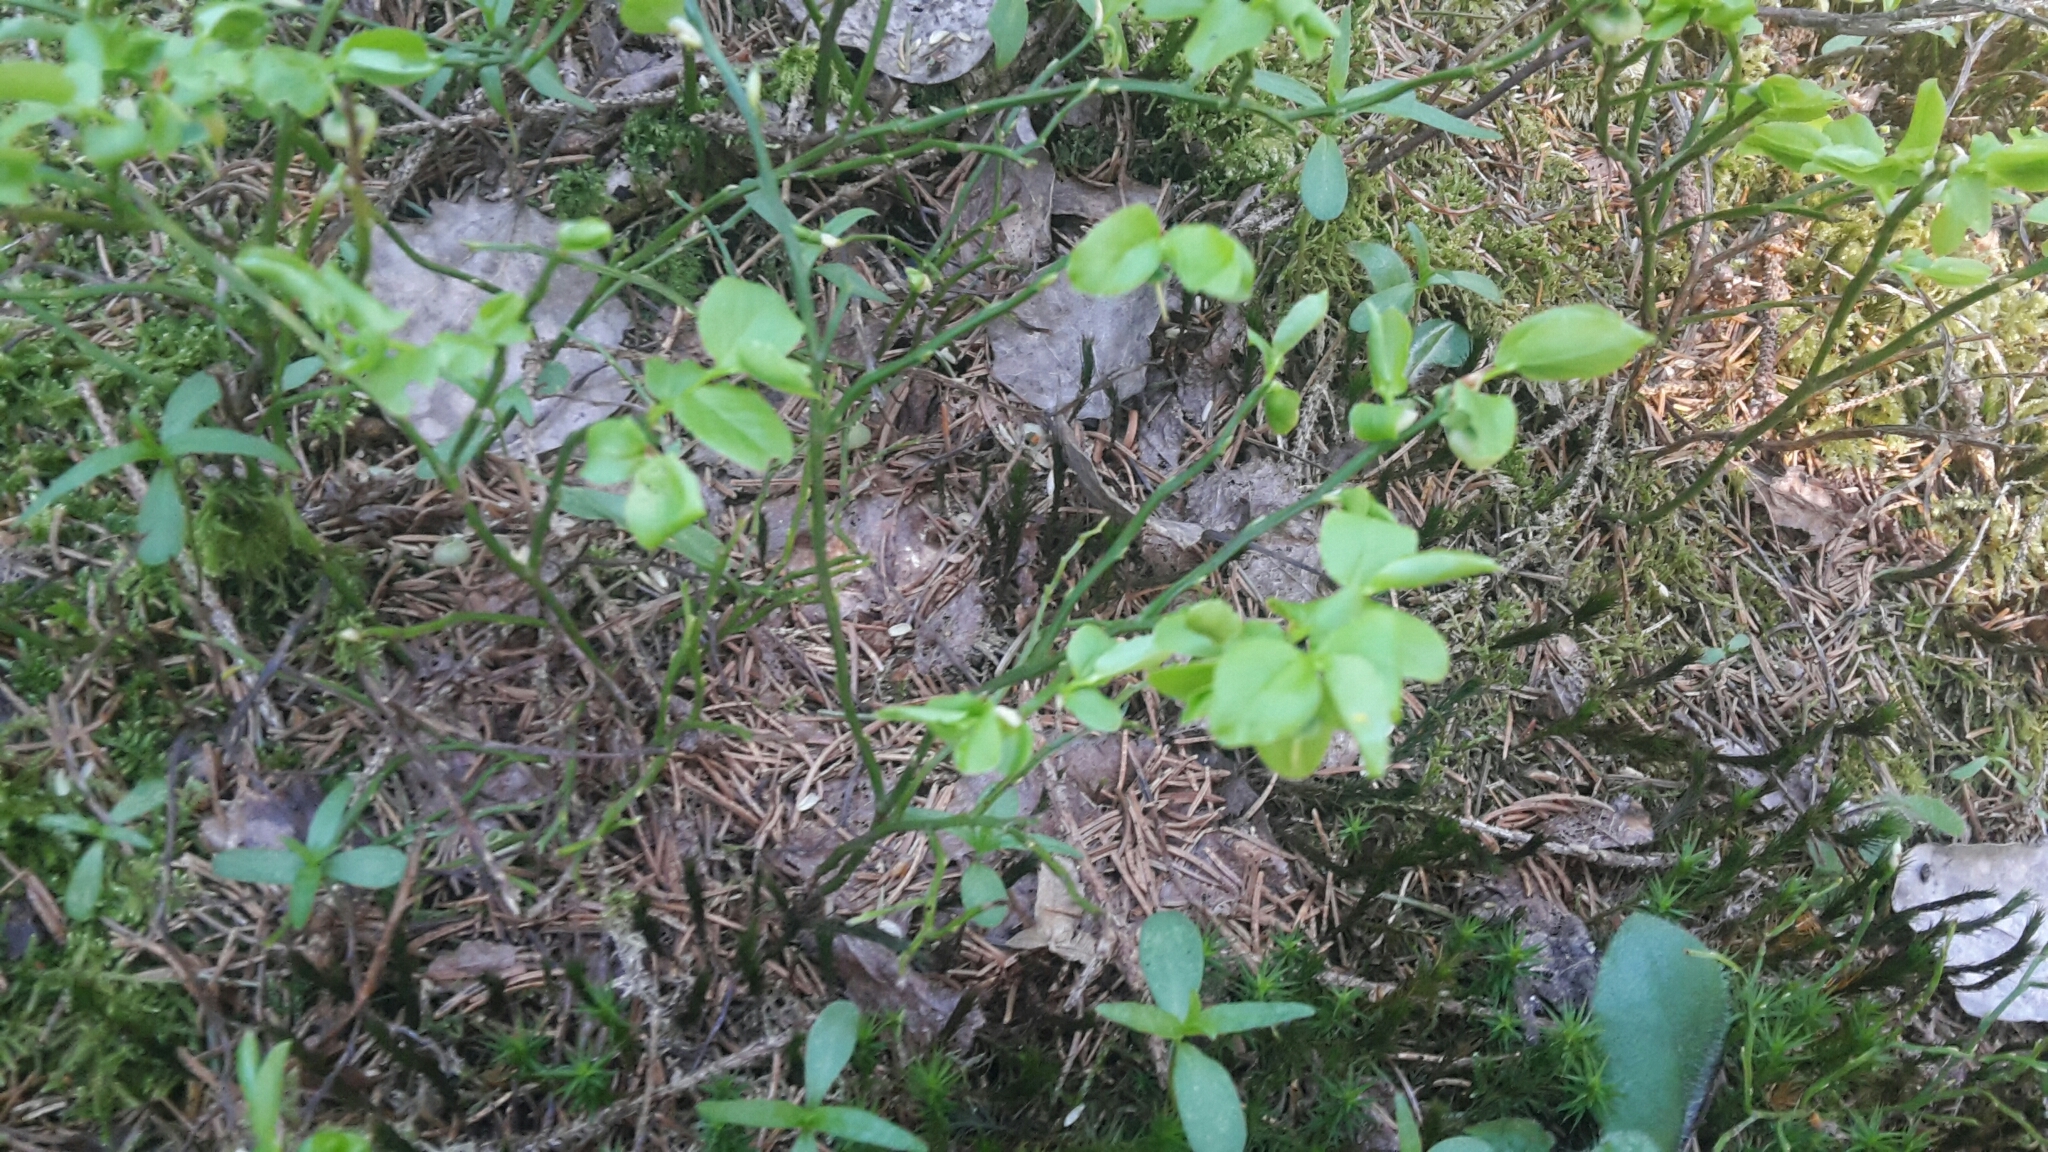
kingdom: Plantae
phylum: Tracheophyta
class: Magnoliopsida
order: Ericales
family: Ericaceae
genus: Vaccinium
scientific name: Vaccinium myrtillus
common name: Bilberry
